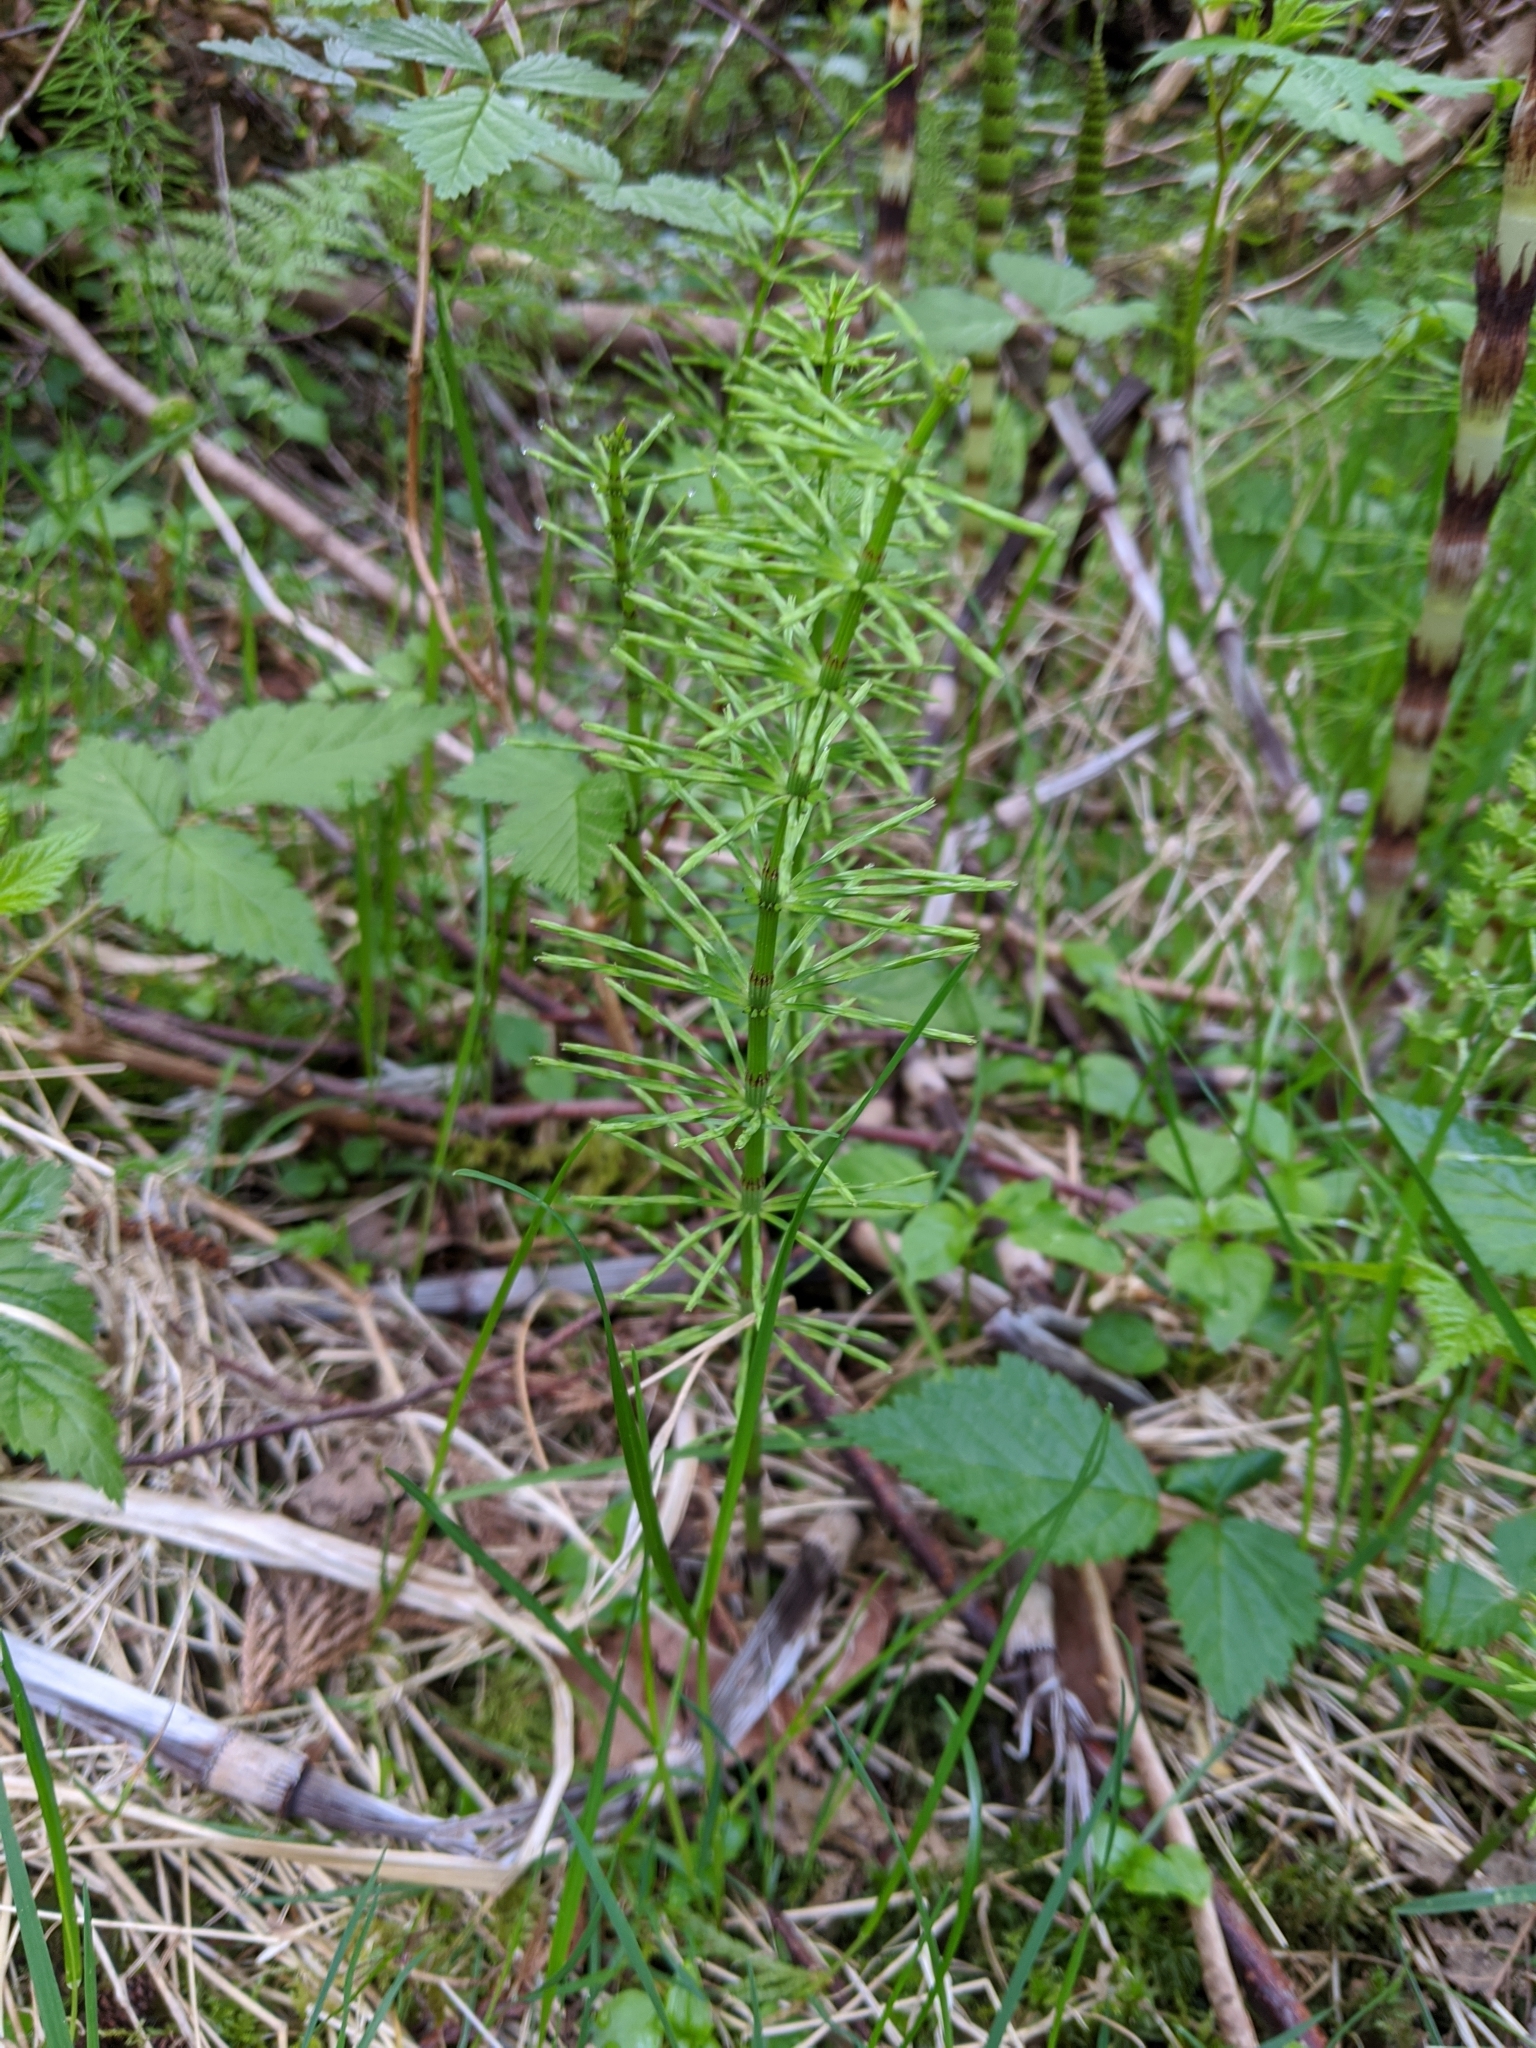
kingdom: Plantae
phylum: Tracheophyta
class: Polypodiopsida
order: Equisetales
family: Equisetaceae
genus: Equisetum
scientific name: Equisetum arvense
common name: Field horsetail
